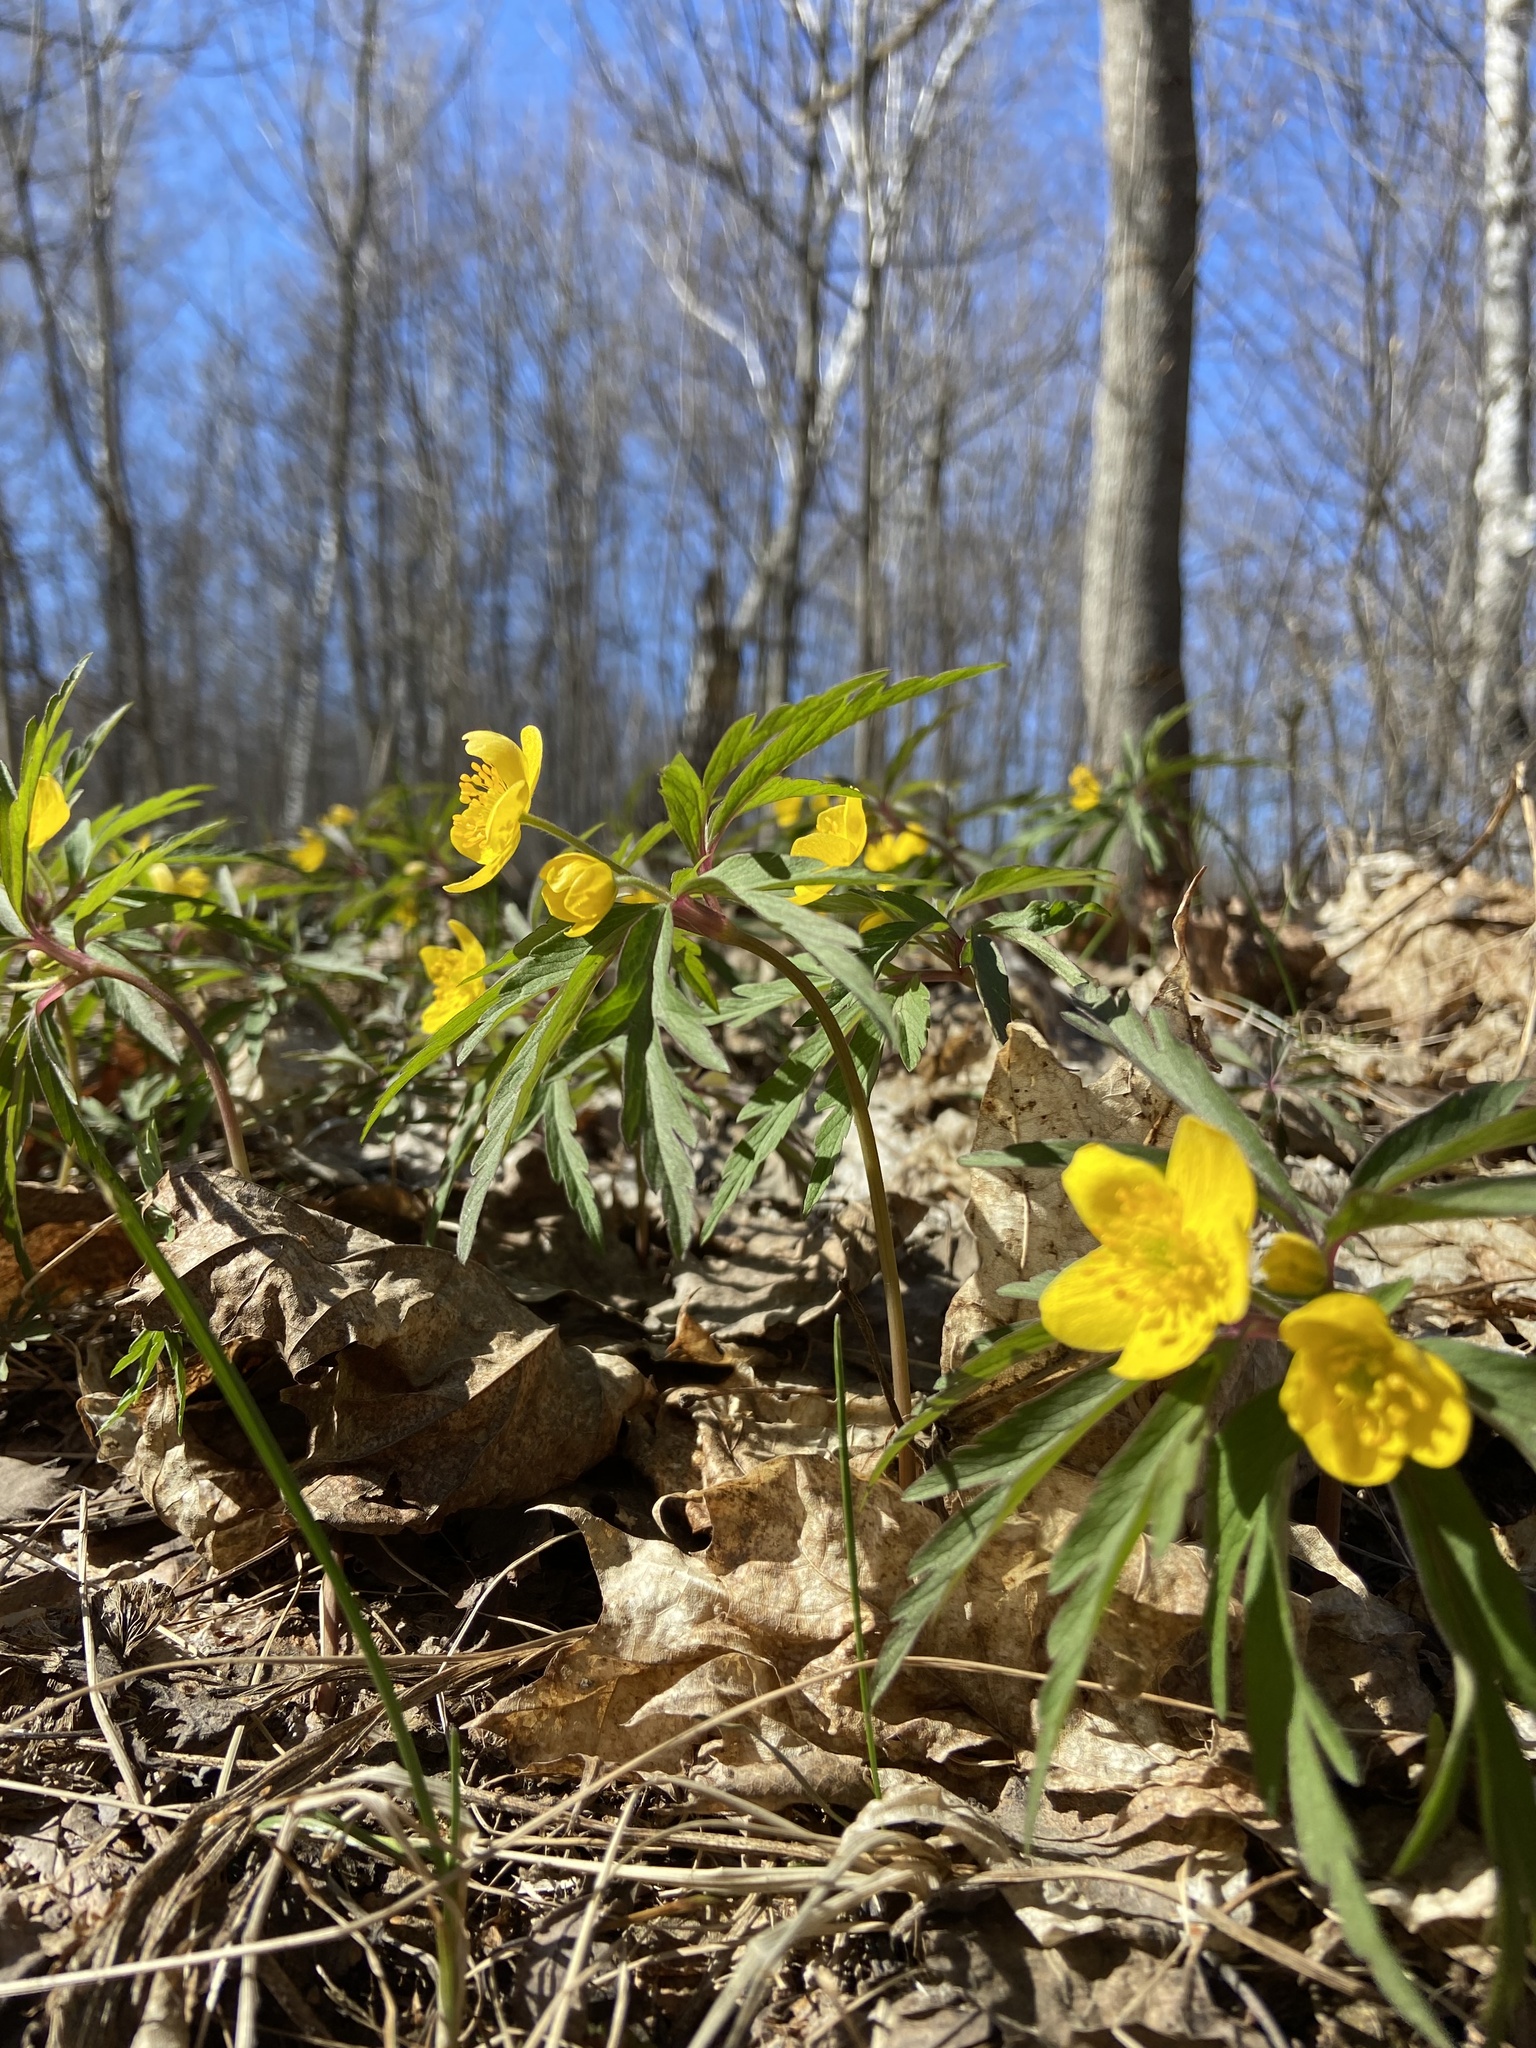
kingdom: Plantae
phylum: Tracheophyta
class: Magnoliopsida
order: Ranunculales
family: Ranunculaceae
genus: Anemone
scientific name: Anemone ranunculoides
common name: Yellow anemone
